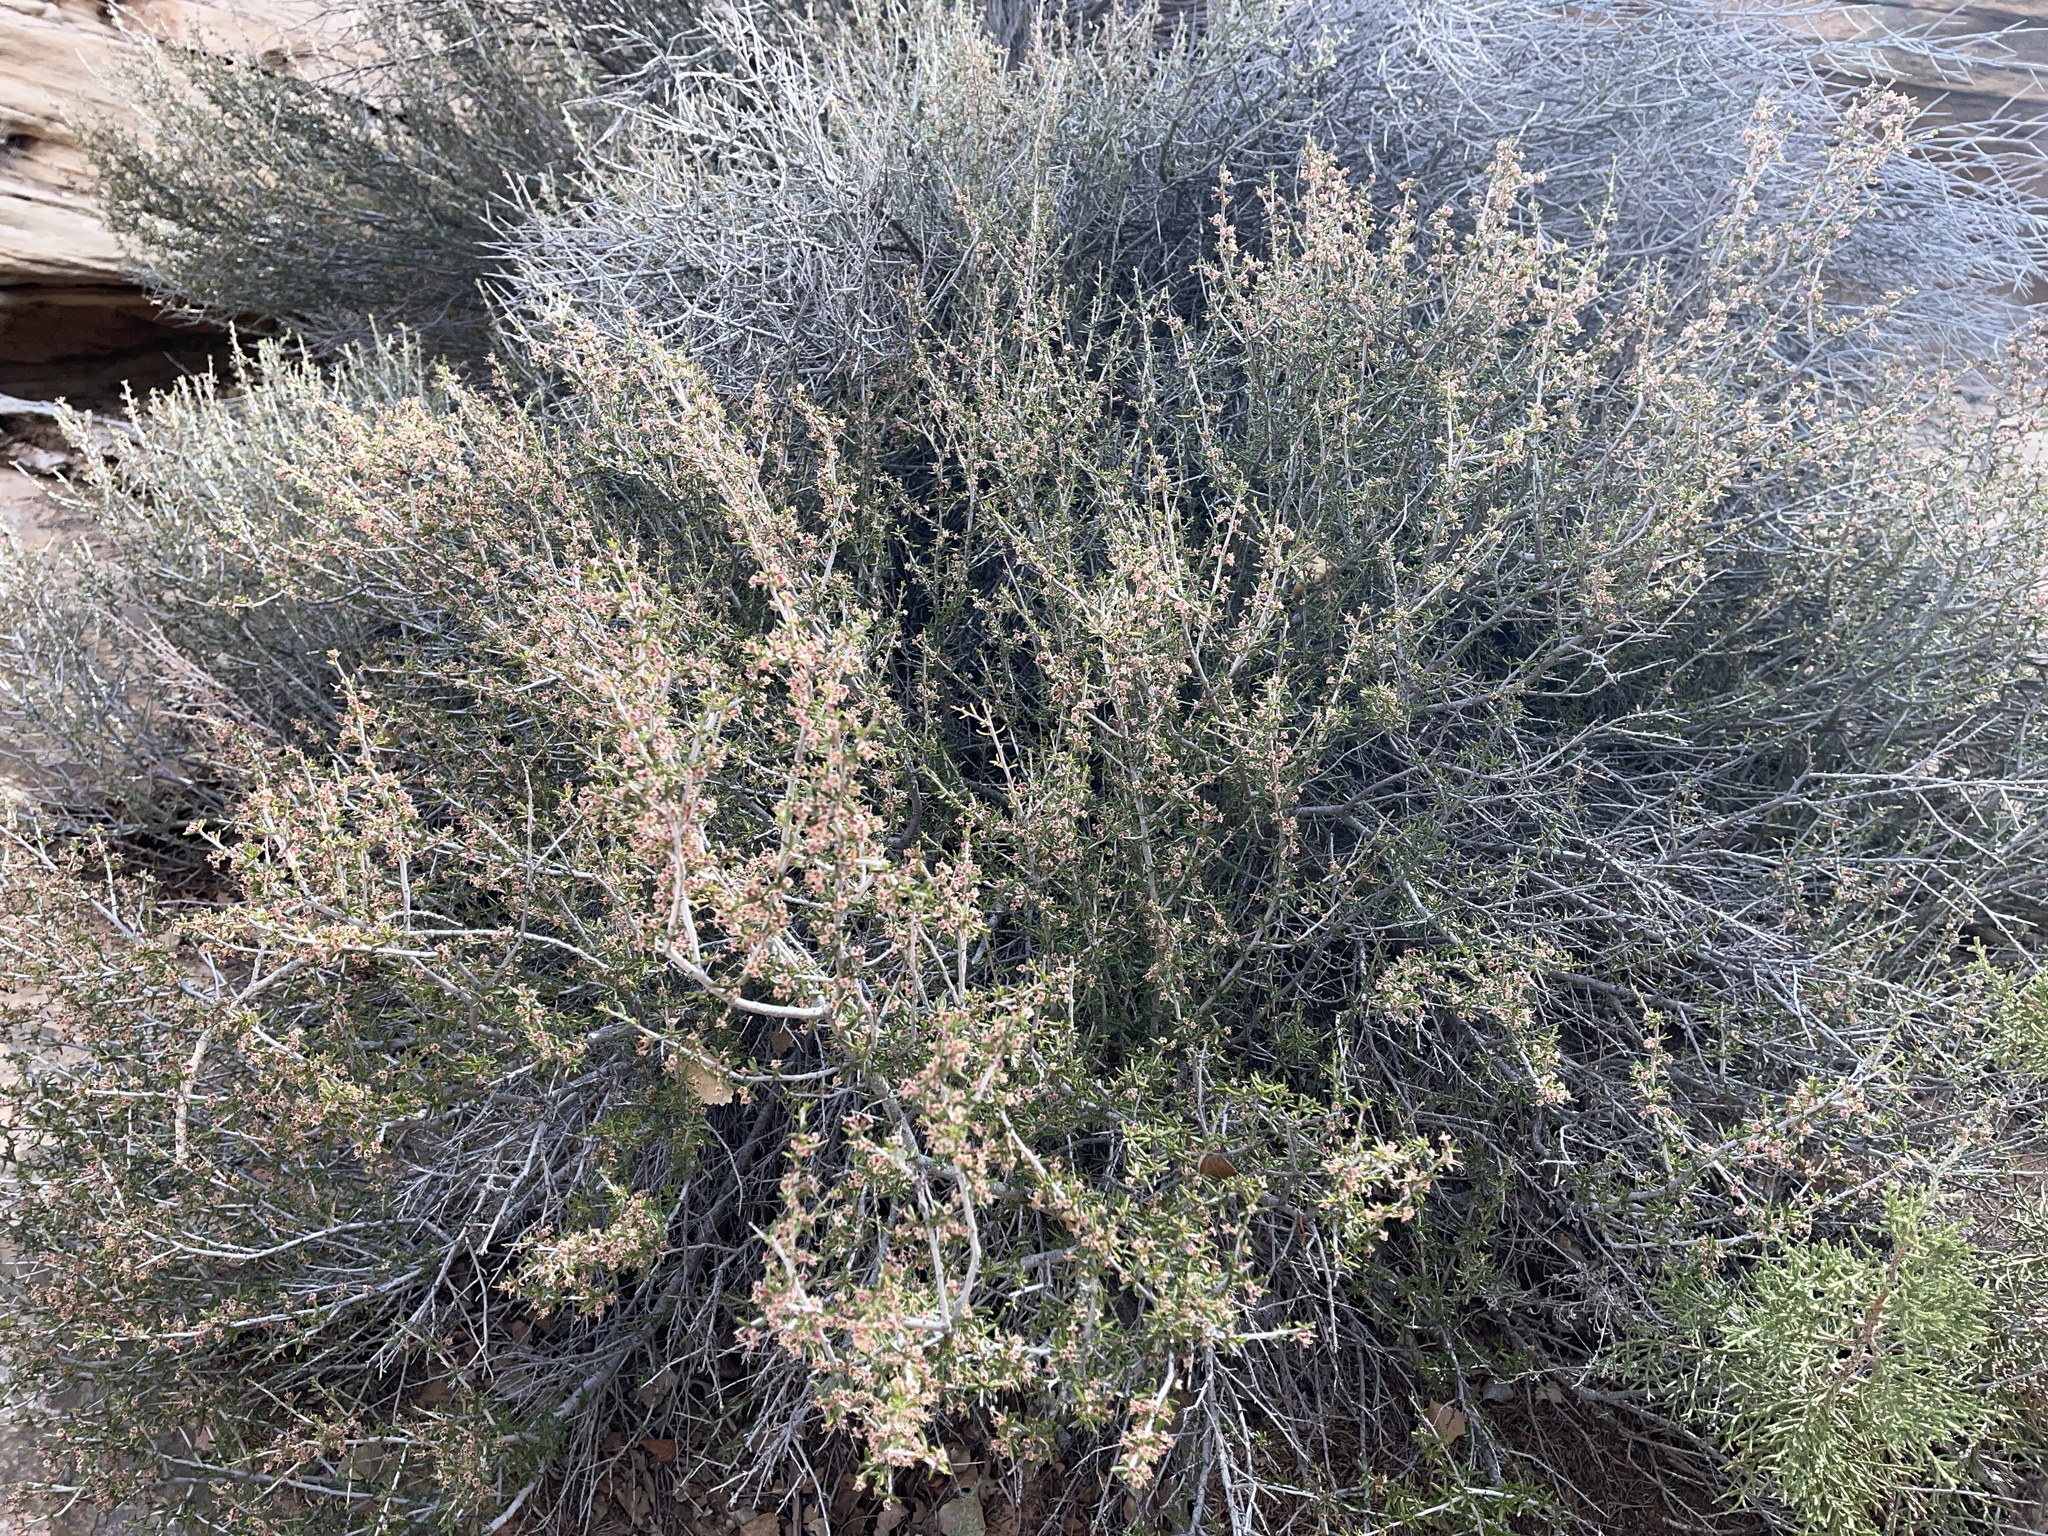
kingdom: Plantae
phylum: Tracheophyta
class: Magnoliopsida
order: Rosales
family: Rosaceae
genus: Cercocarpus
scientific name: Cercocarpus intricatus
